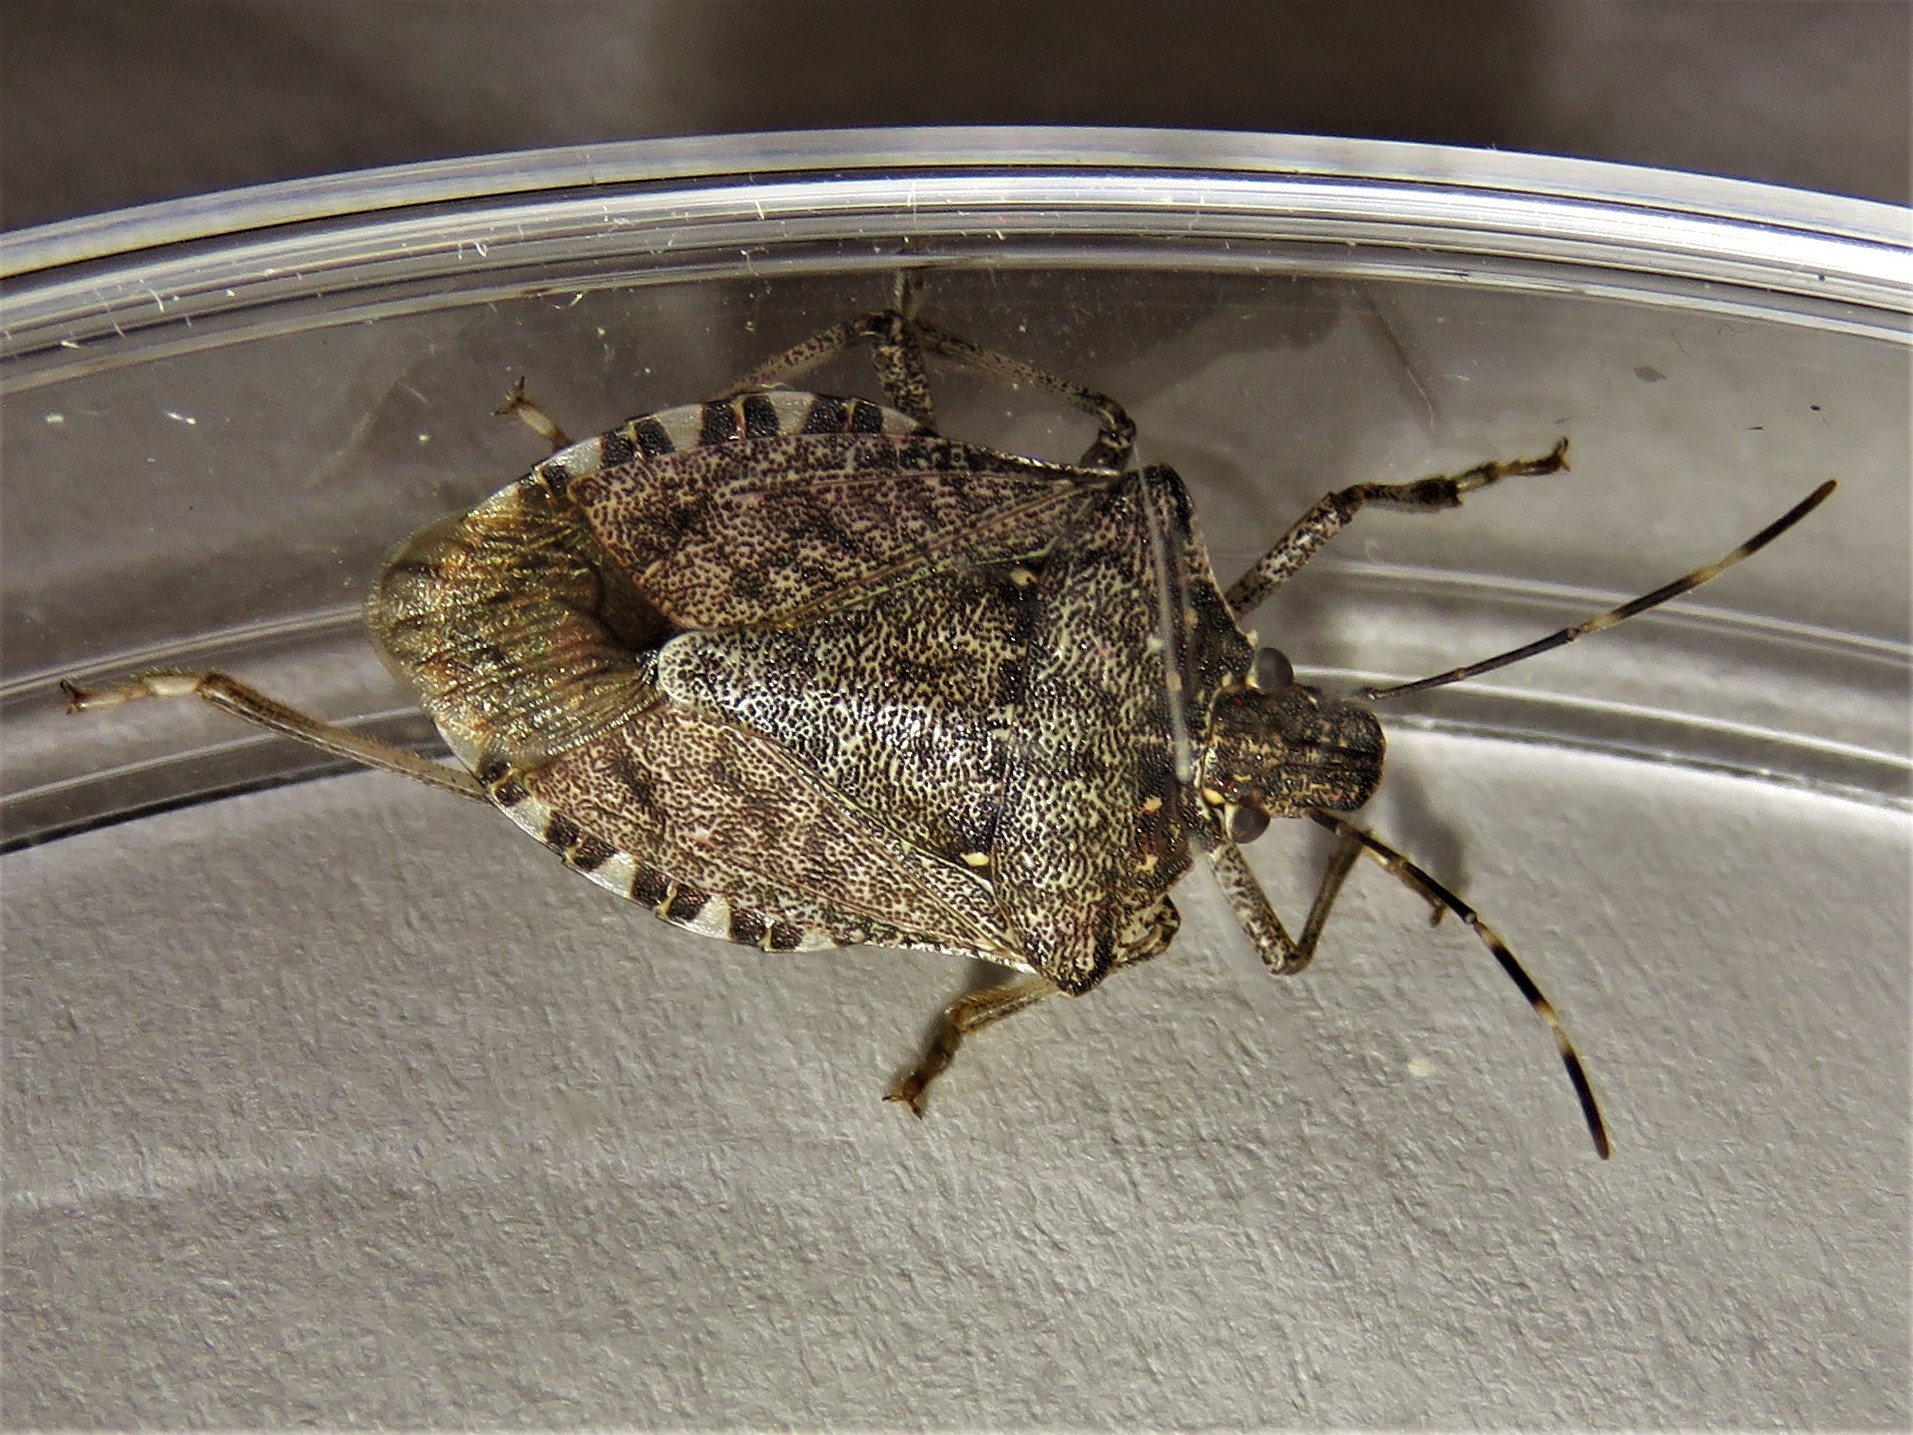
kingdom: Animalia
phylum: Arthropoda
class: Insecta
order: Hemiptera
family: Pentatomidae
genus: Halyomorpha
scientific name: Halyomorpha halys
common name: Brown marmorated stink bug
